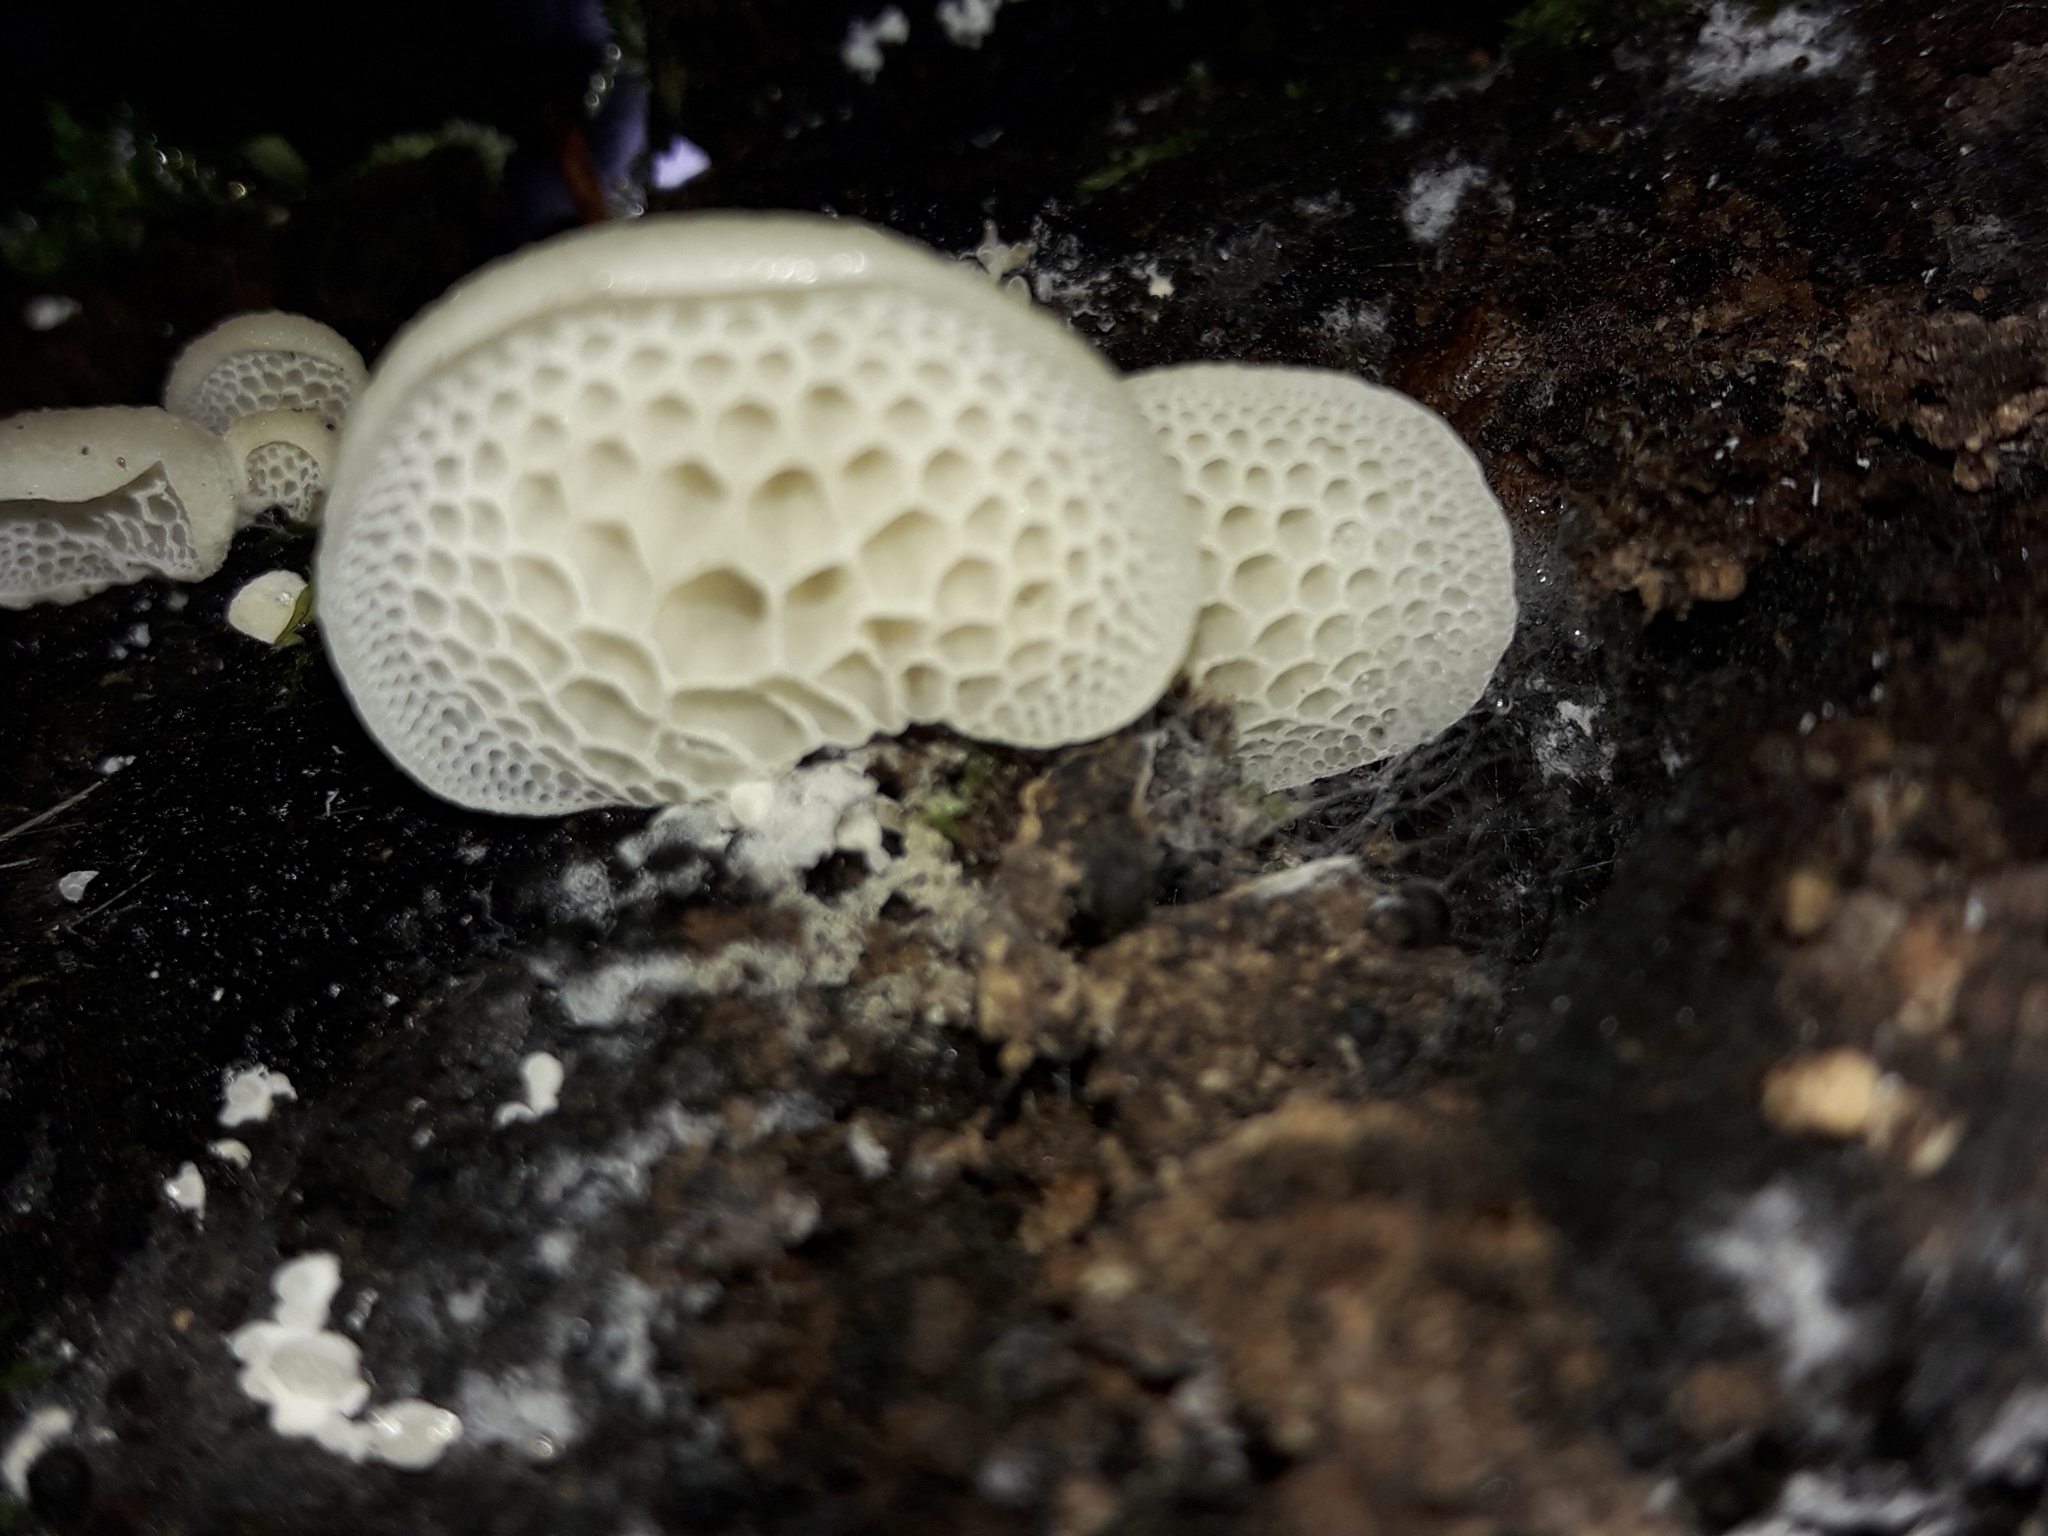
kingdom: Fungi
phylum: Basidiomycota
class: Agaricomycetes
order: Agaricales
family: Mycenaceae
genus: Favolaschia
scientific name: Favolaschia pustulosa
